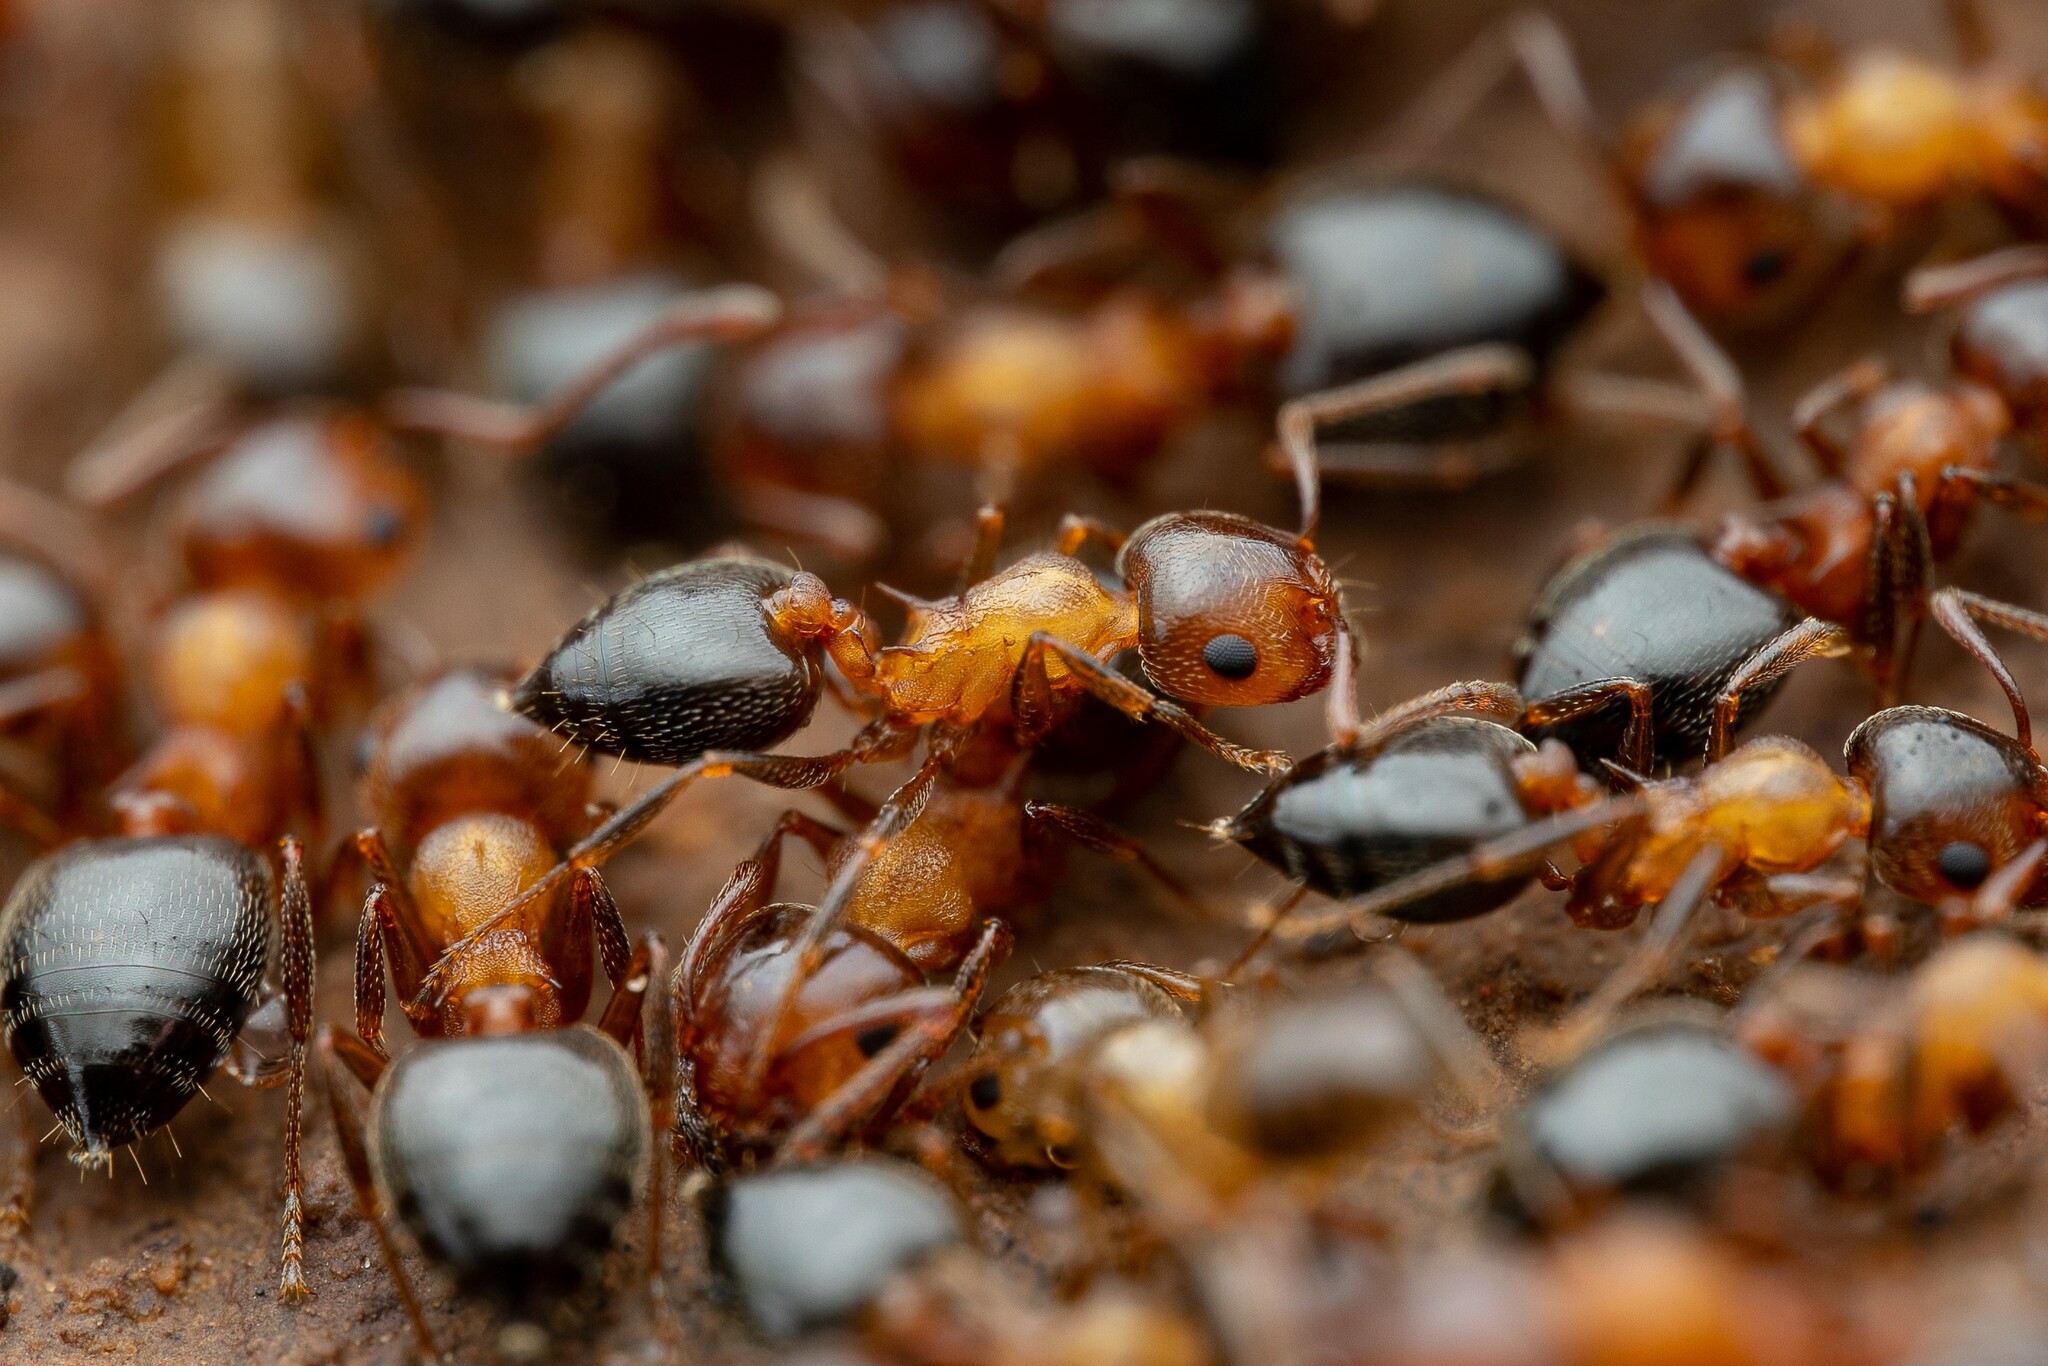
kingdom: Animalia
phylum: Arthropoda
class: Insecta
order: Hymenoptera
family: Formicidae
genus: Crematogaster
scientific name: Crematogaster opuntiae
